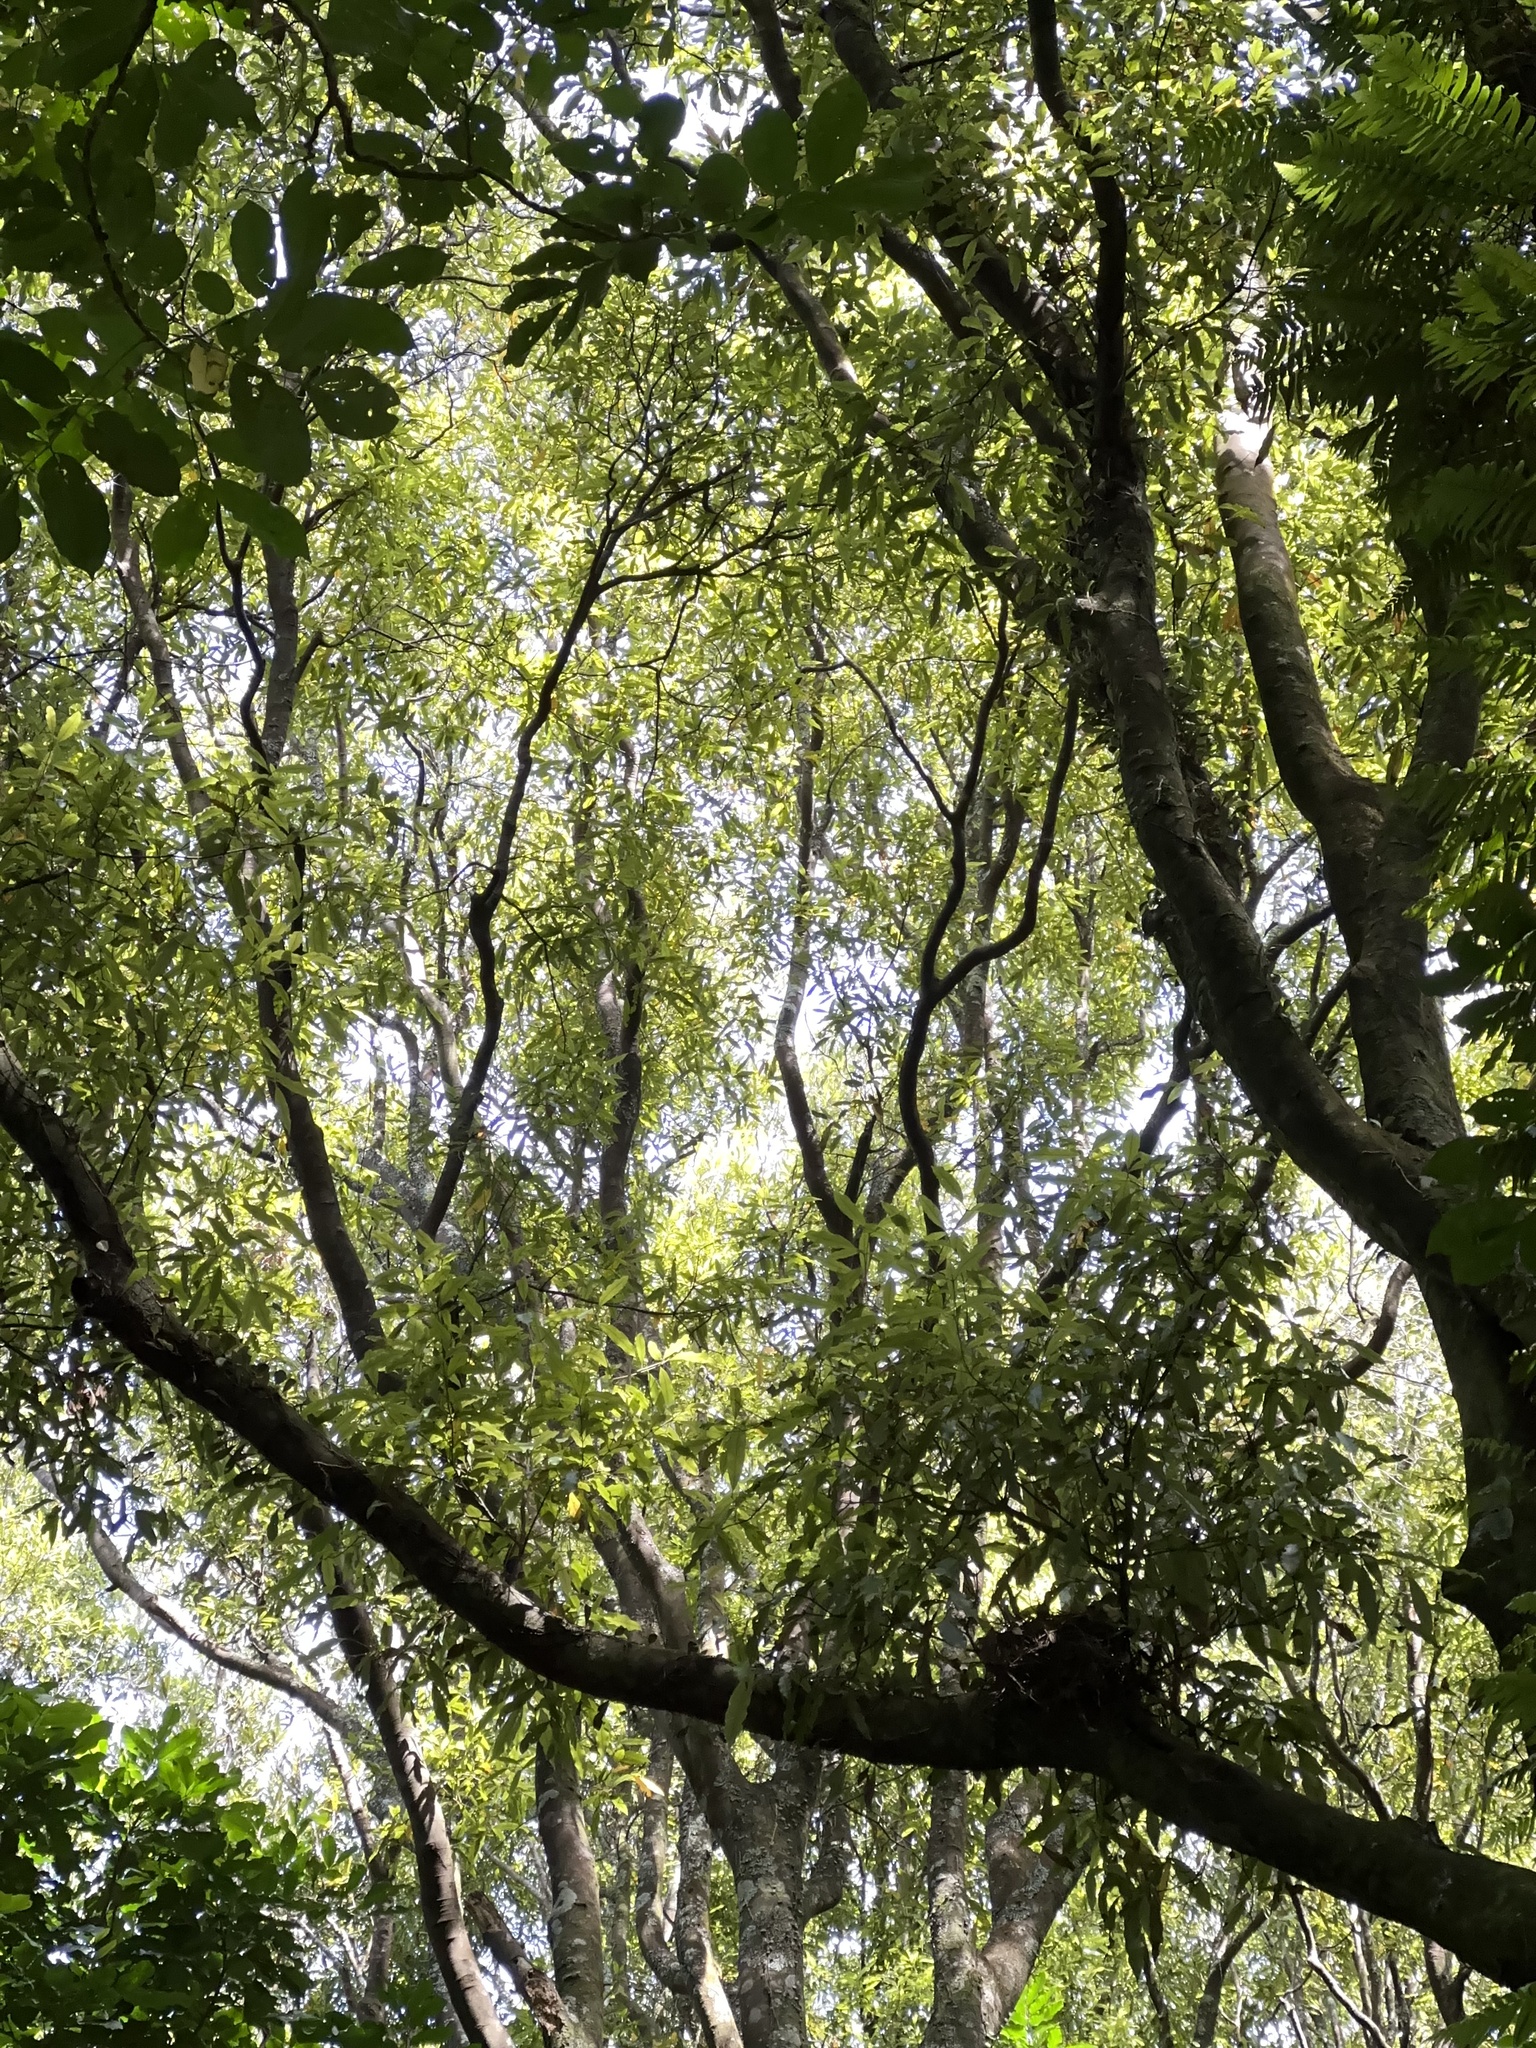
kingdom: Plantae
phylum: Tracheophyta
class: Magnoliopsida
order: Laurales
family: Lauraceae
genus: Beilschmiedia
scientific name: Beilschmiedia tawa
